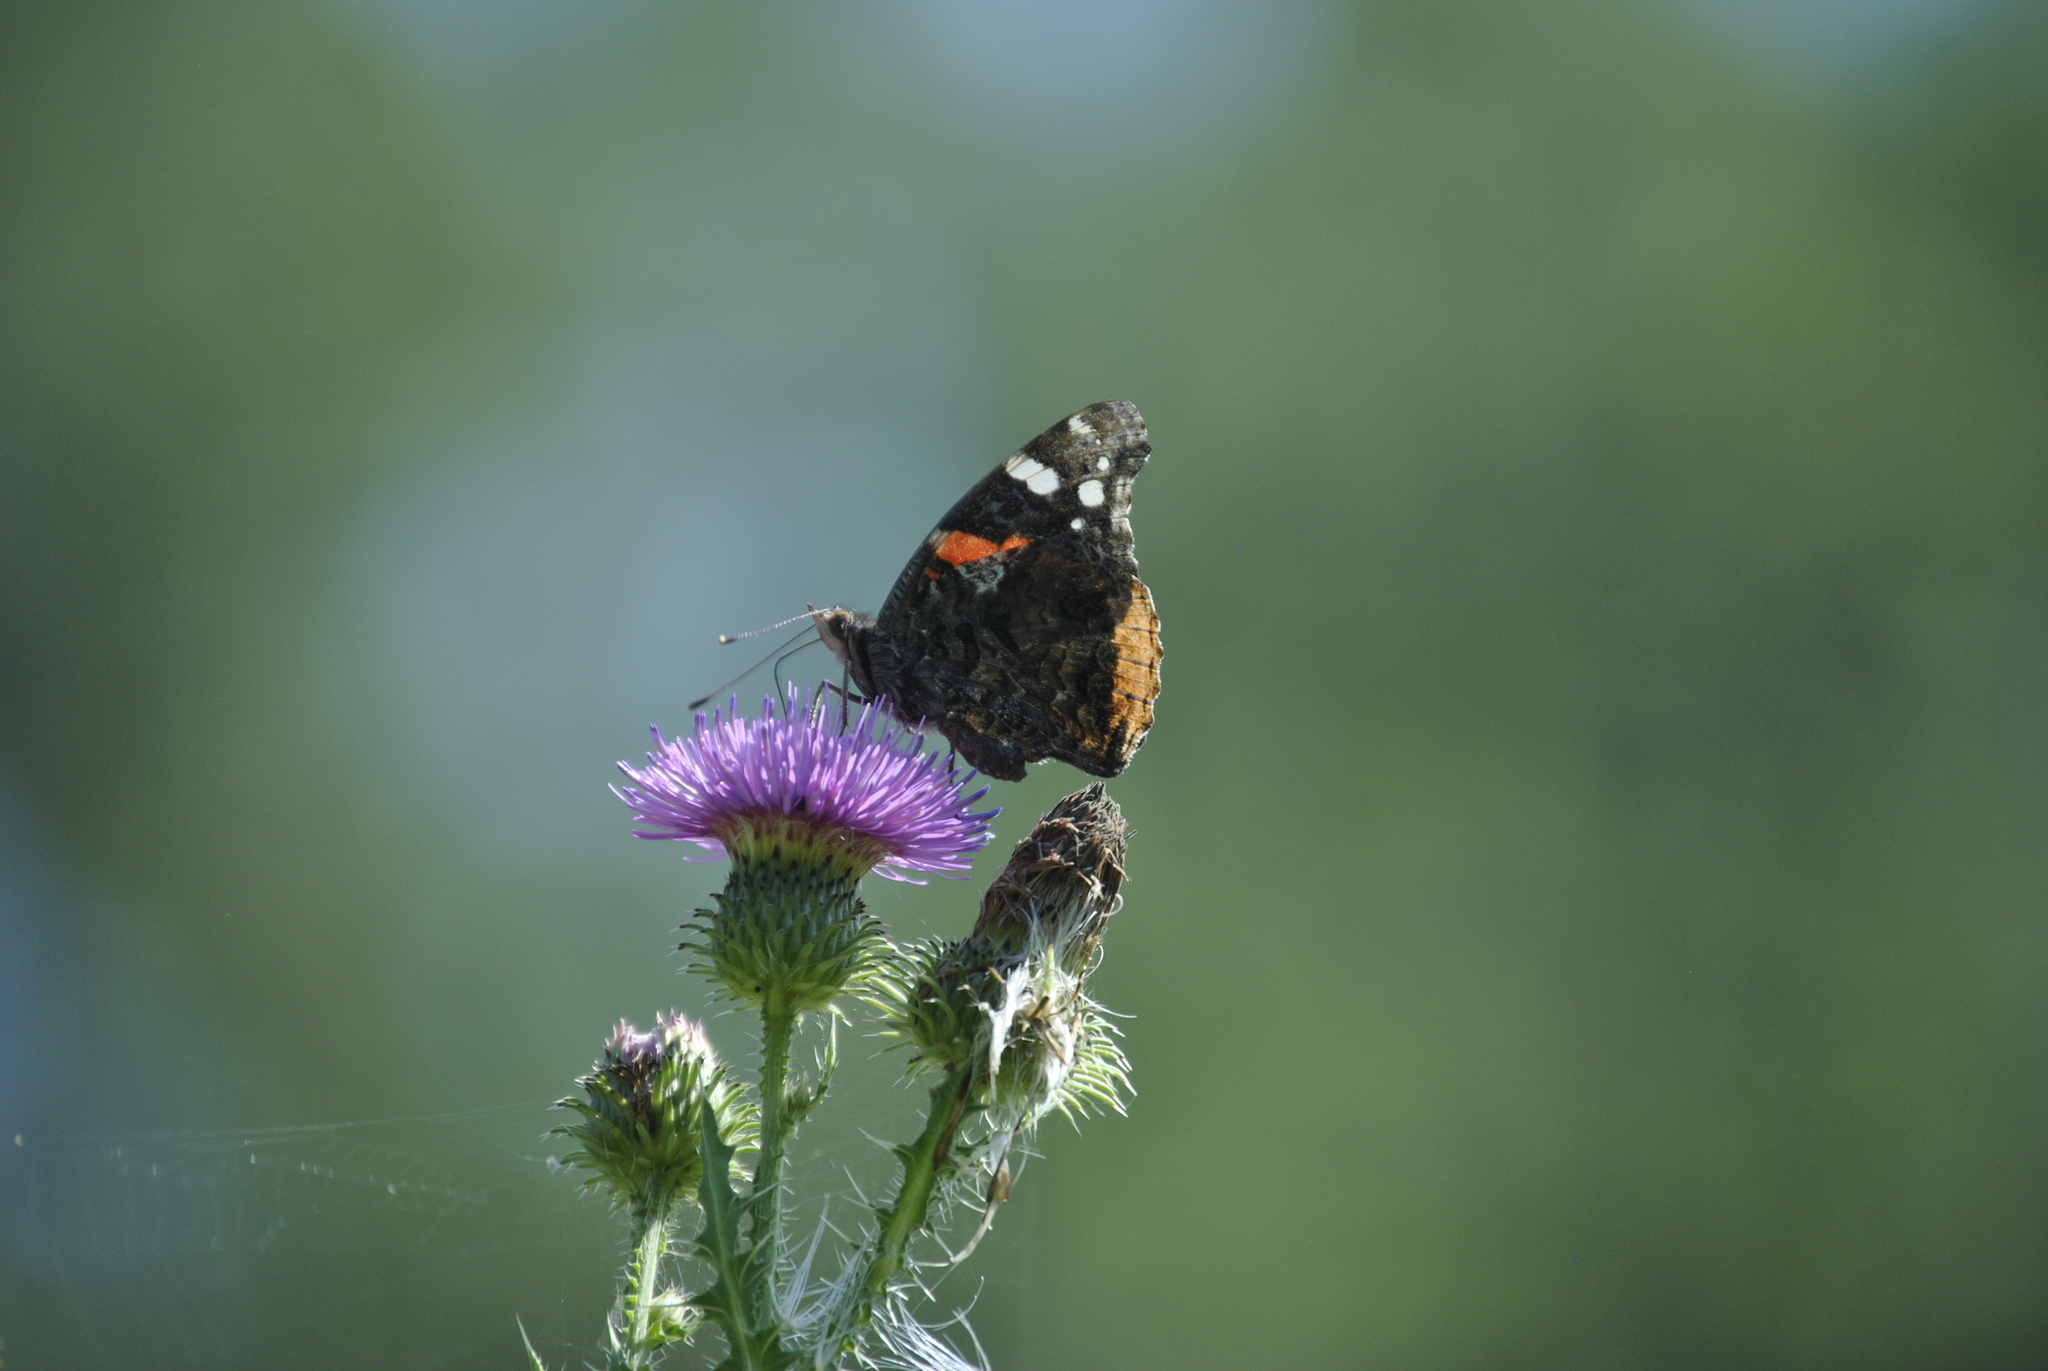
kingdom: Animalia
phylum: Arthropoda
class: Insecta
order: Lepidoptera
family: Nymphalidae
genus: Vanessa
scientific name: Vanessa atalanta
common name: Red admiral
